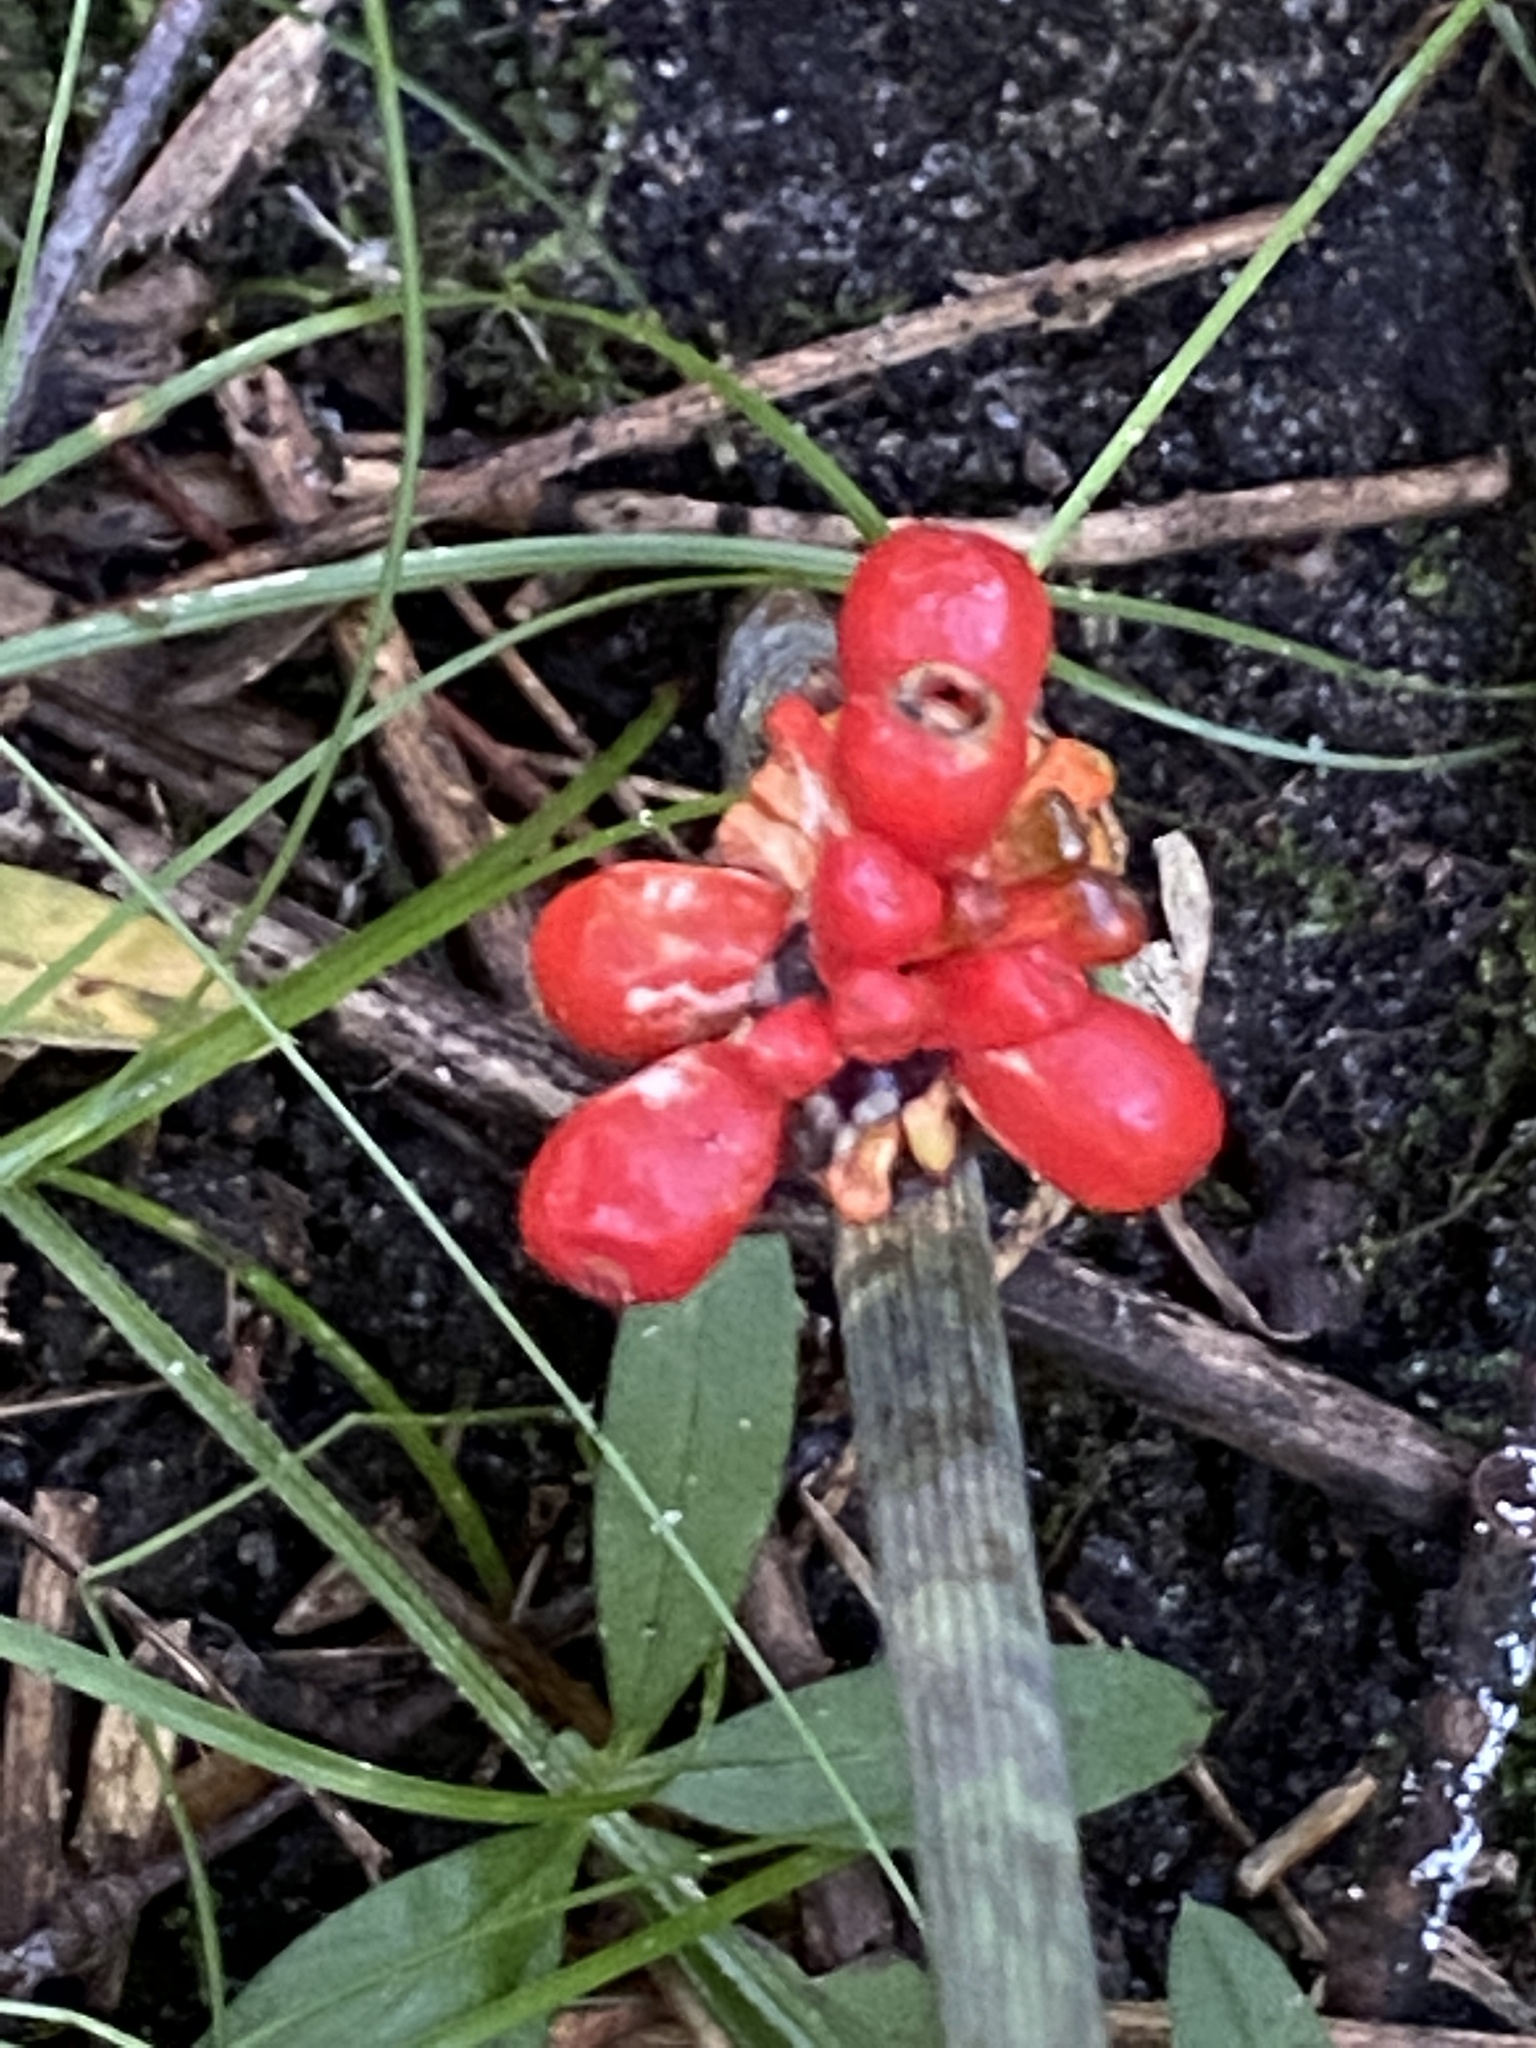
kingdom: Plantae
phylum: Tracheophyta
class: Liliopsida
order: Alismatales
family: Araceae
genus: Arisaema
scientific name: Arisaema triphyllum
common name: Jack-in-the-pulpit
